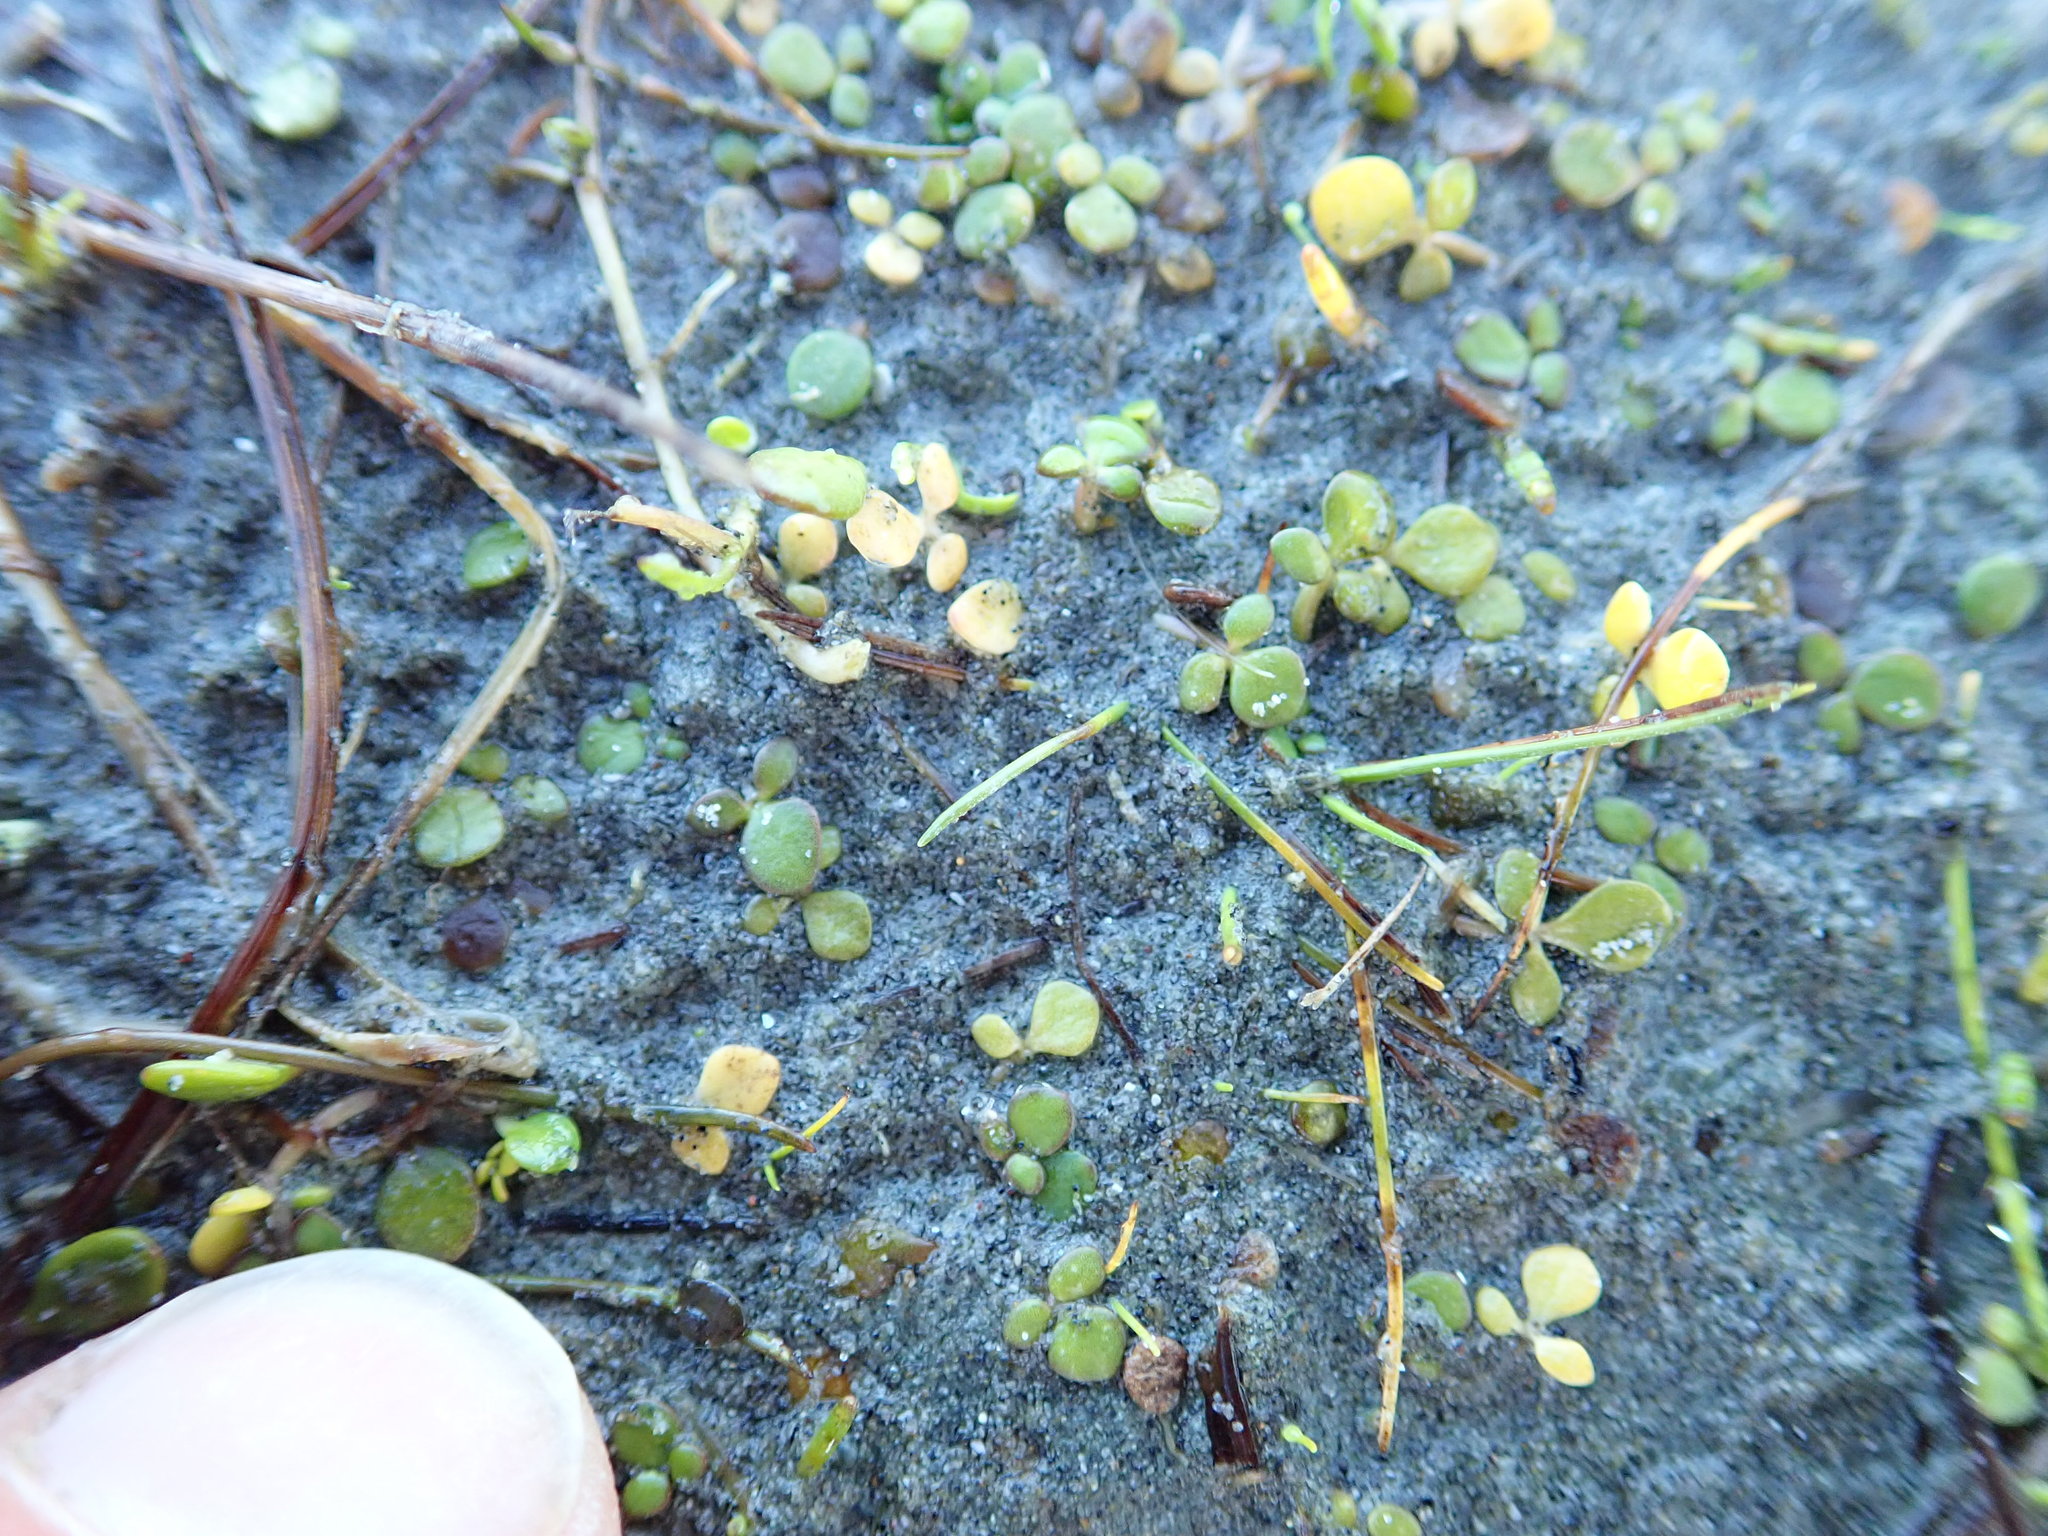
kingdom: Plantae
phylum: Tracheophyta
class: Magnoliopsida
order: Ranunculales
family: Ranunculaceae
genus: Ranunculus
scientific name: Ranunculus acaulis
